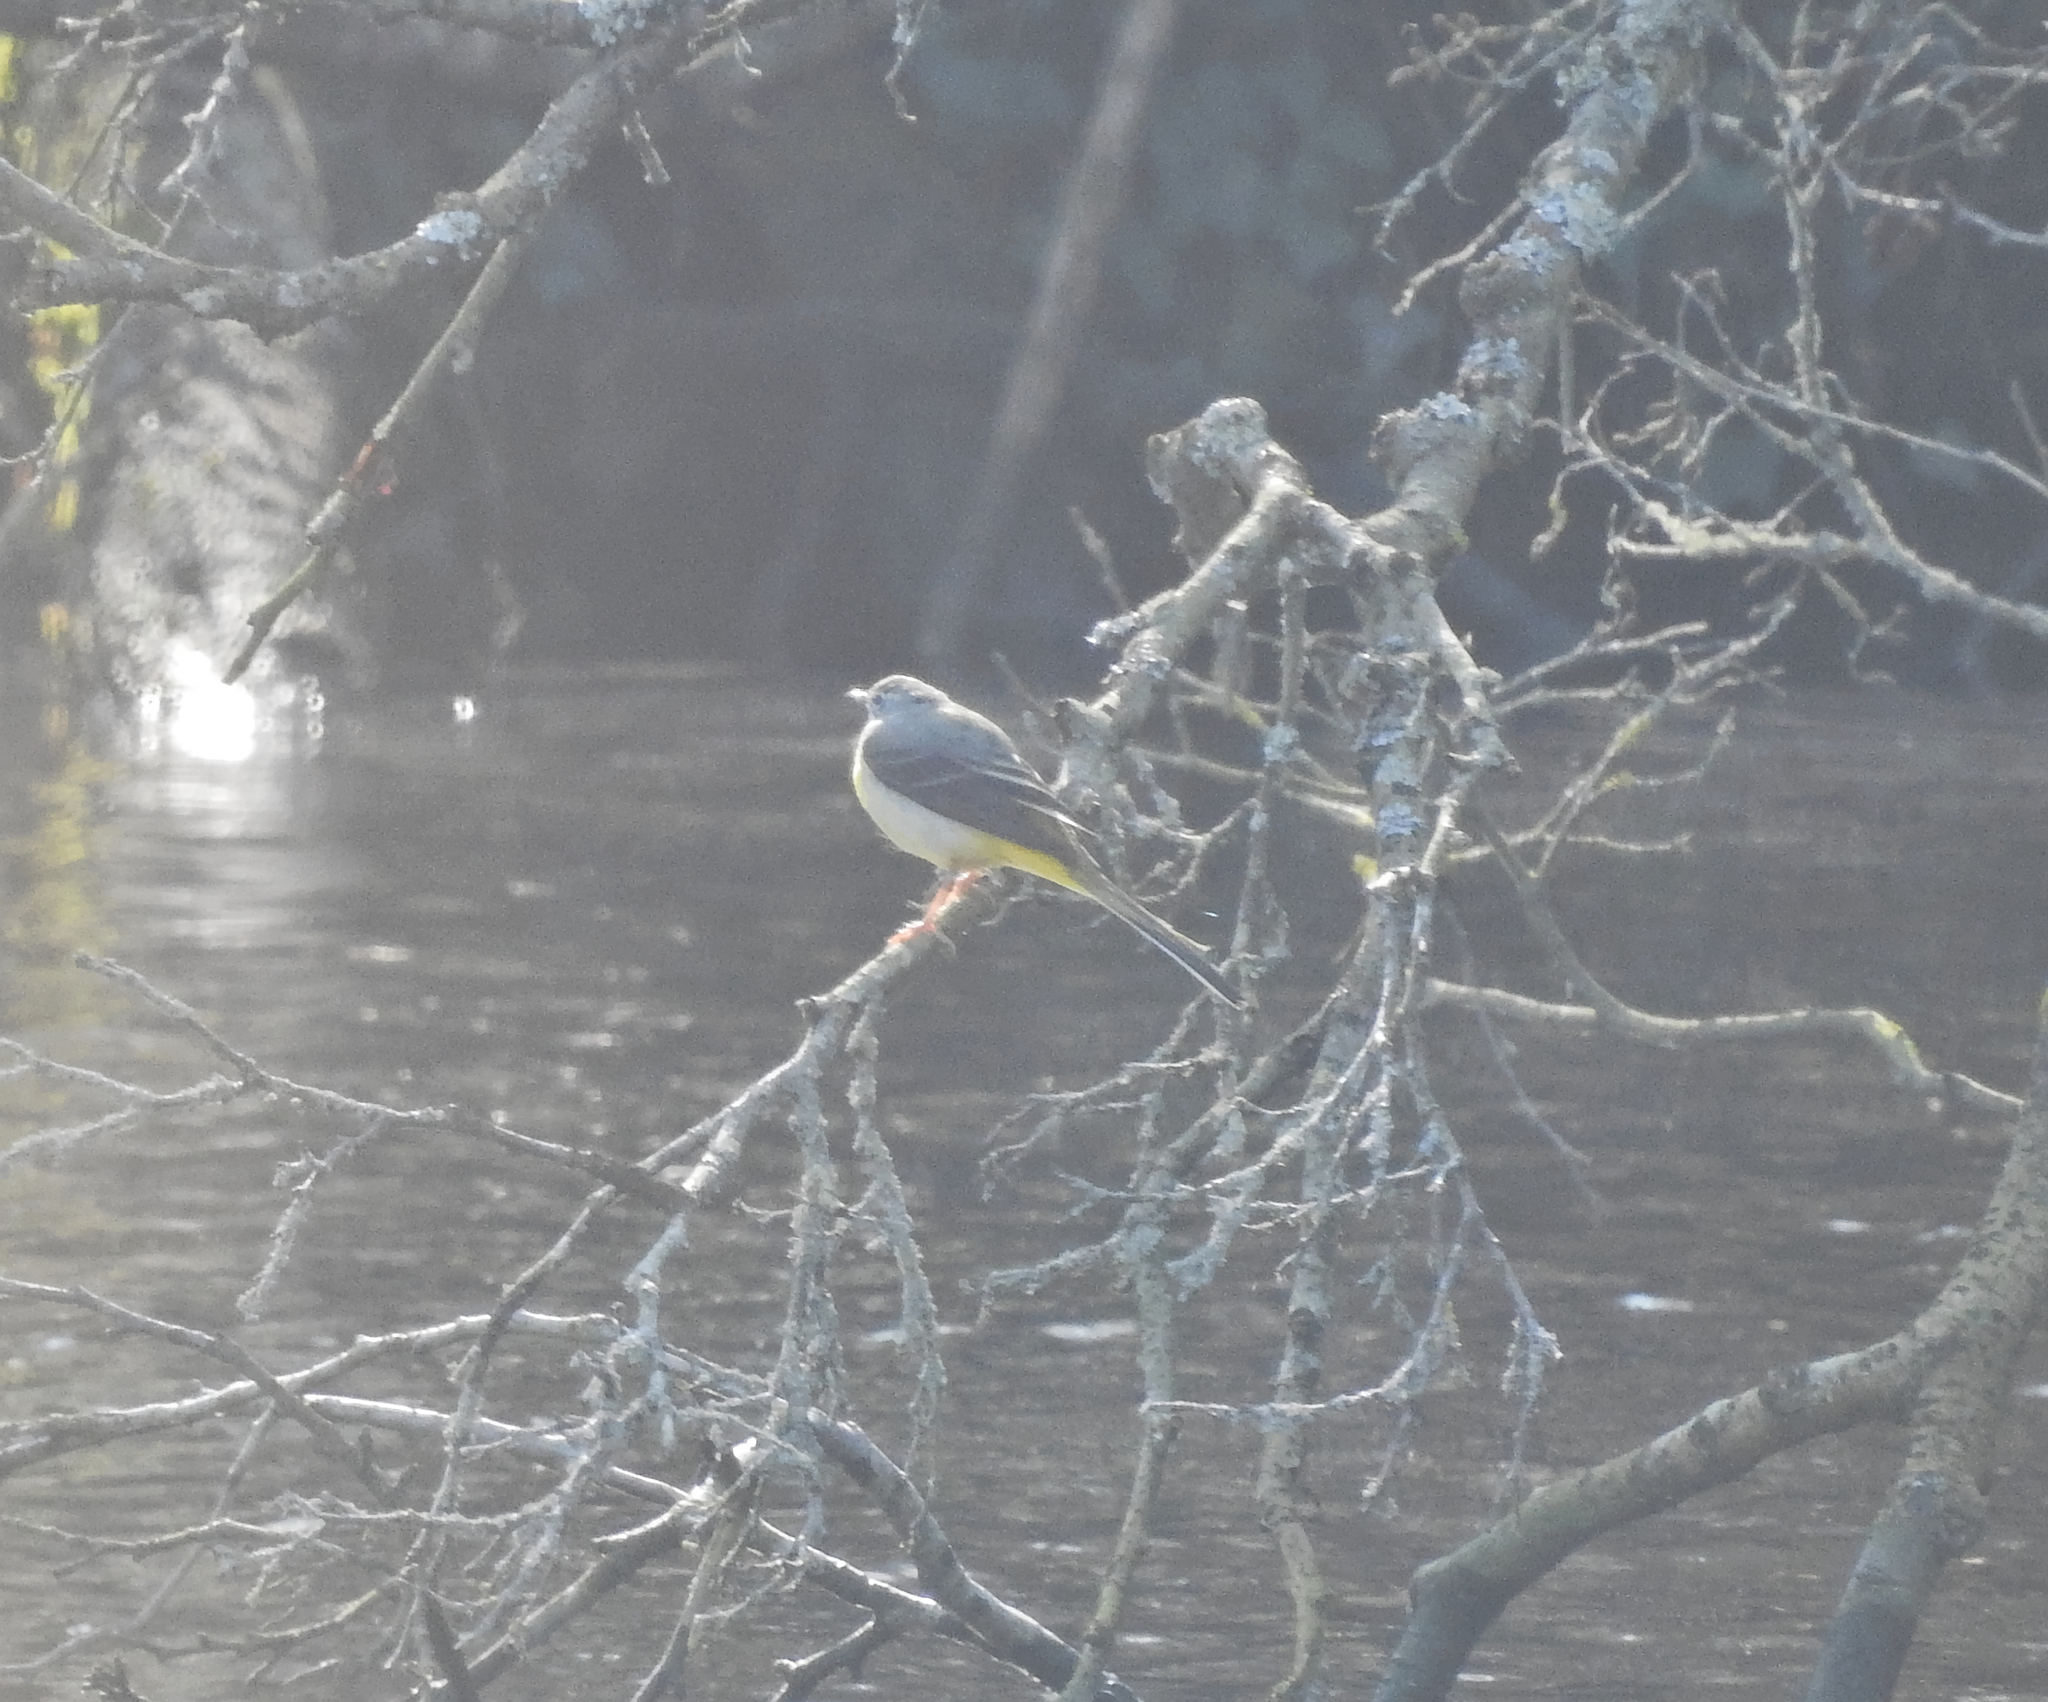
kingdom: Animalia
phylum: Chordata
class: Aves
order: Passeriformes
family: Motacillidae
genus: Motacilla
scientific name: Motacilla cinerea
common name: Grey wagtail
